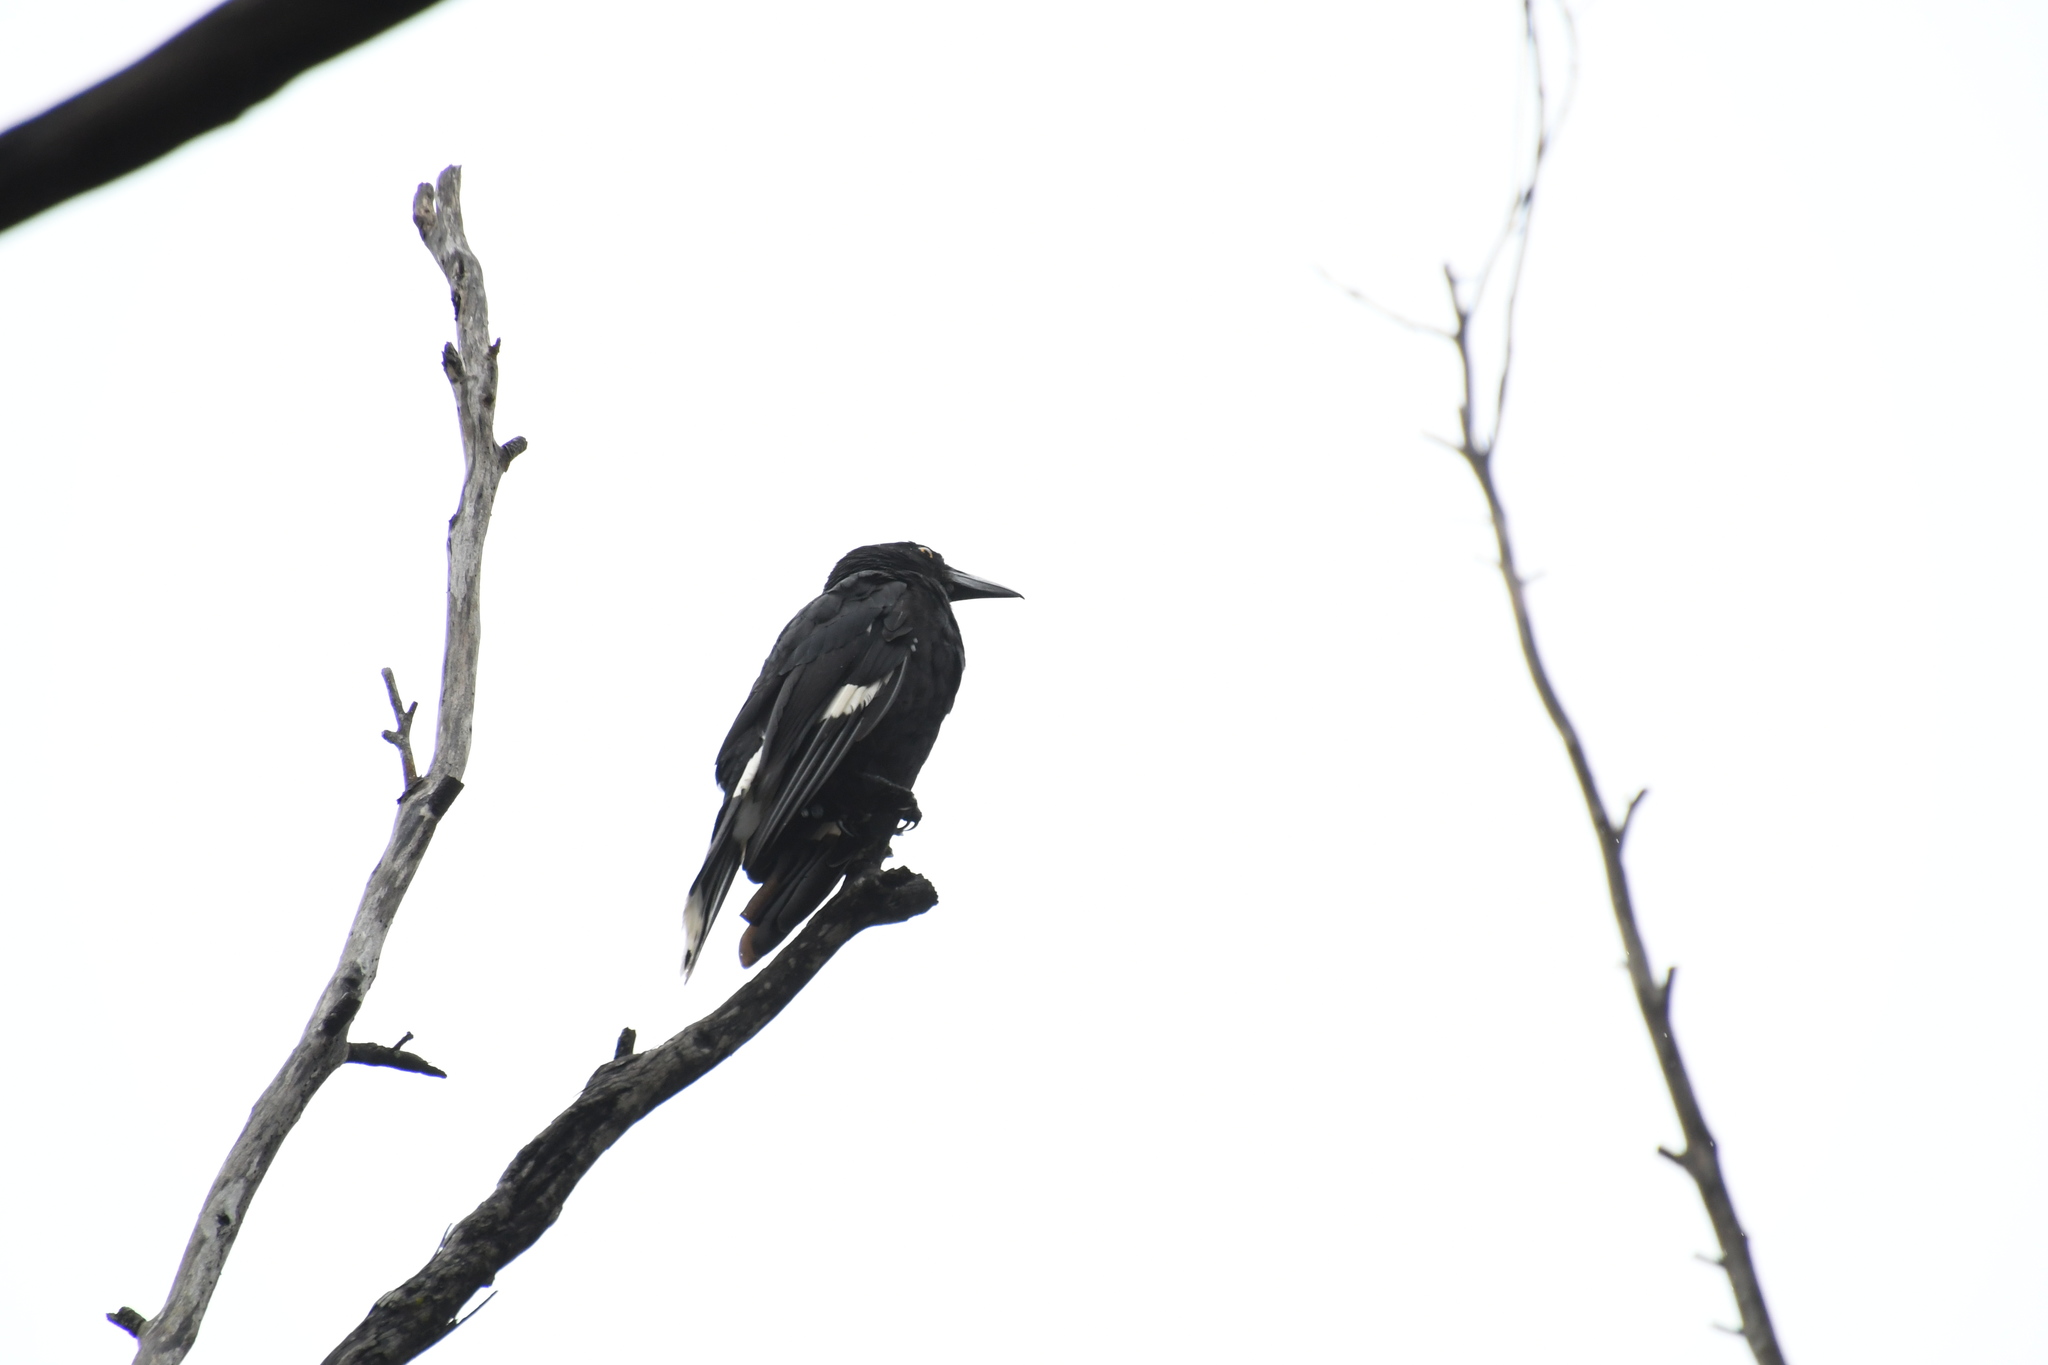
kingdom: Animalia
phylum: Chordata
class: Aves
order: Passeriformes
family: Cracticidae
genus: Strepera
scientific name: Strepera graculina
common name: Pied currawong
